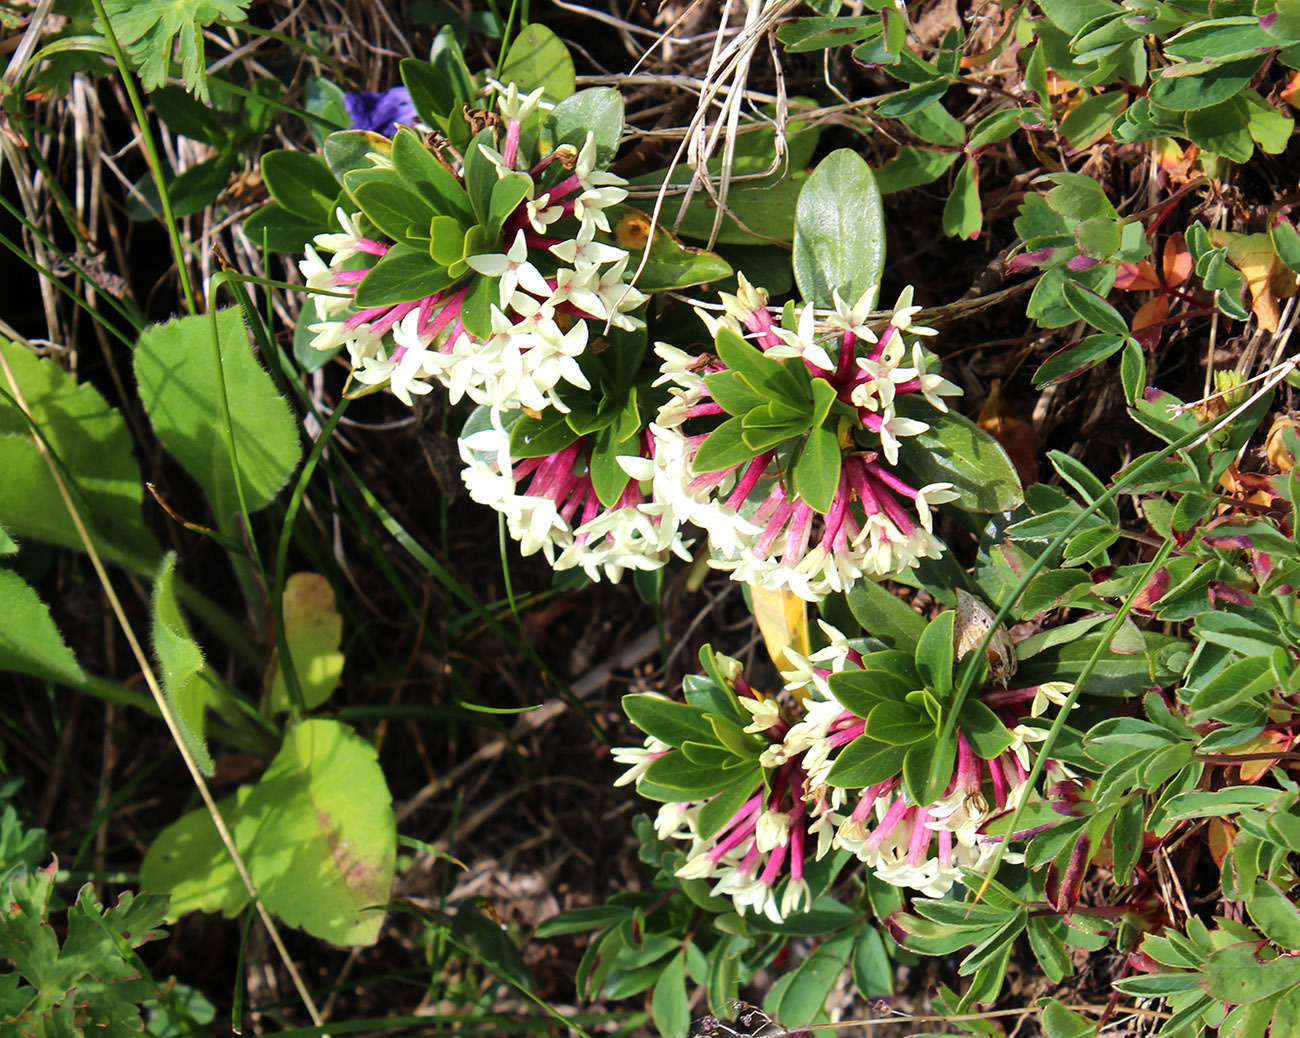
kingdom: Plantae
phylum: Tracheophyta
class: Magnoliopsida
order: Malvales
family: Thymelaeaceae
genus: Daphne
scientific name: Daphne glomerata
